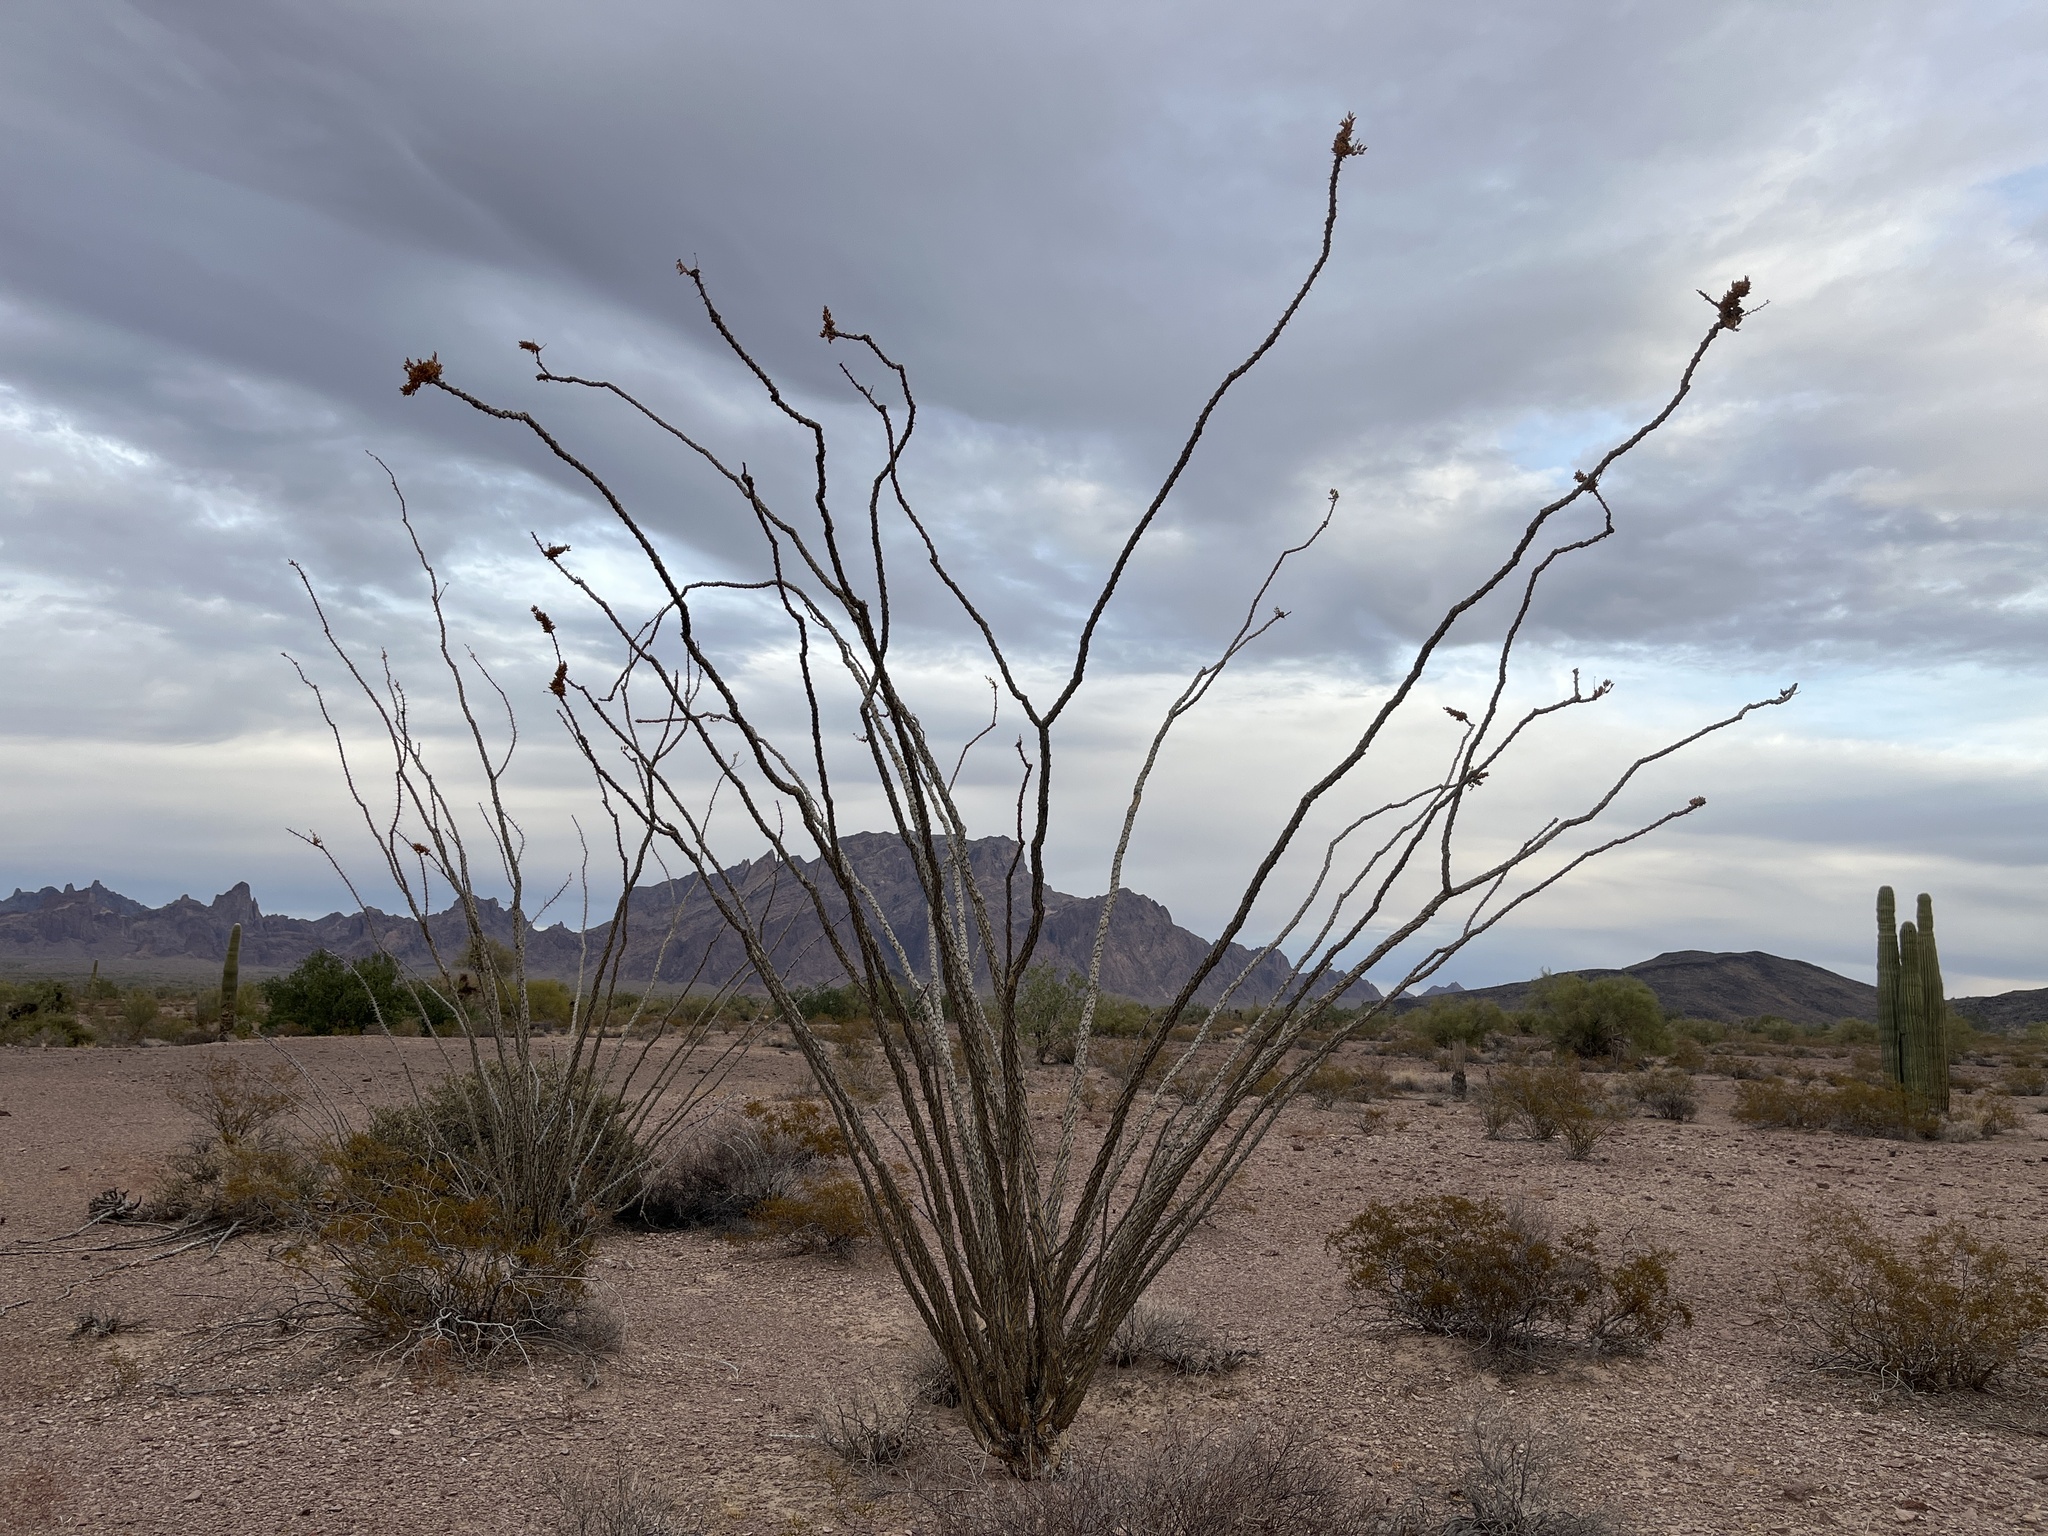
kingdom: Plantae
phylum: Tracheophyta
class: Magnoliopsida
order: Ericales
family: Fouquieriaceae
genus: Fouquieria
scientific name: Fouquieria splendens
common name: Vine-cactus
